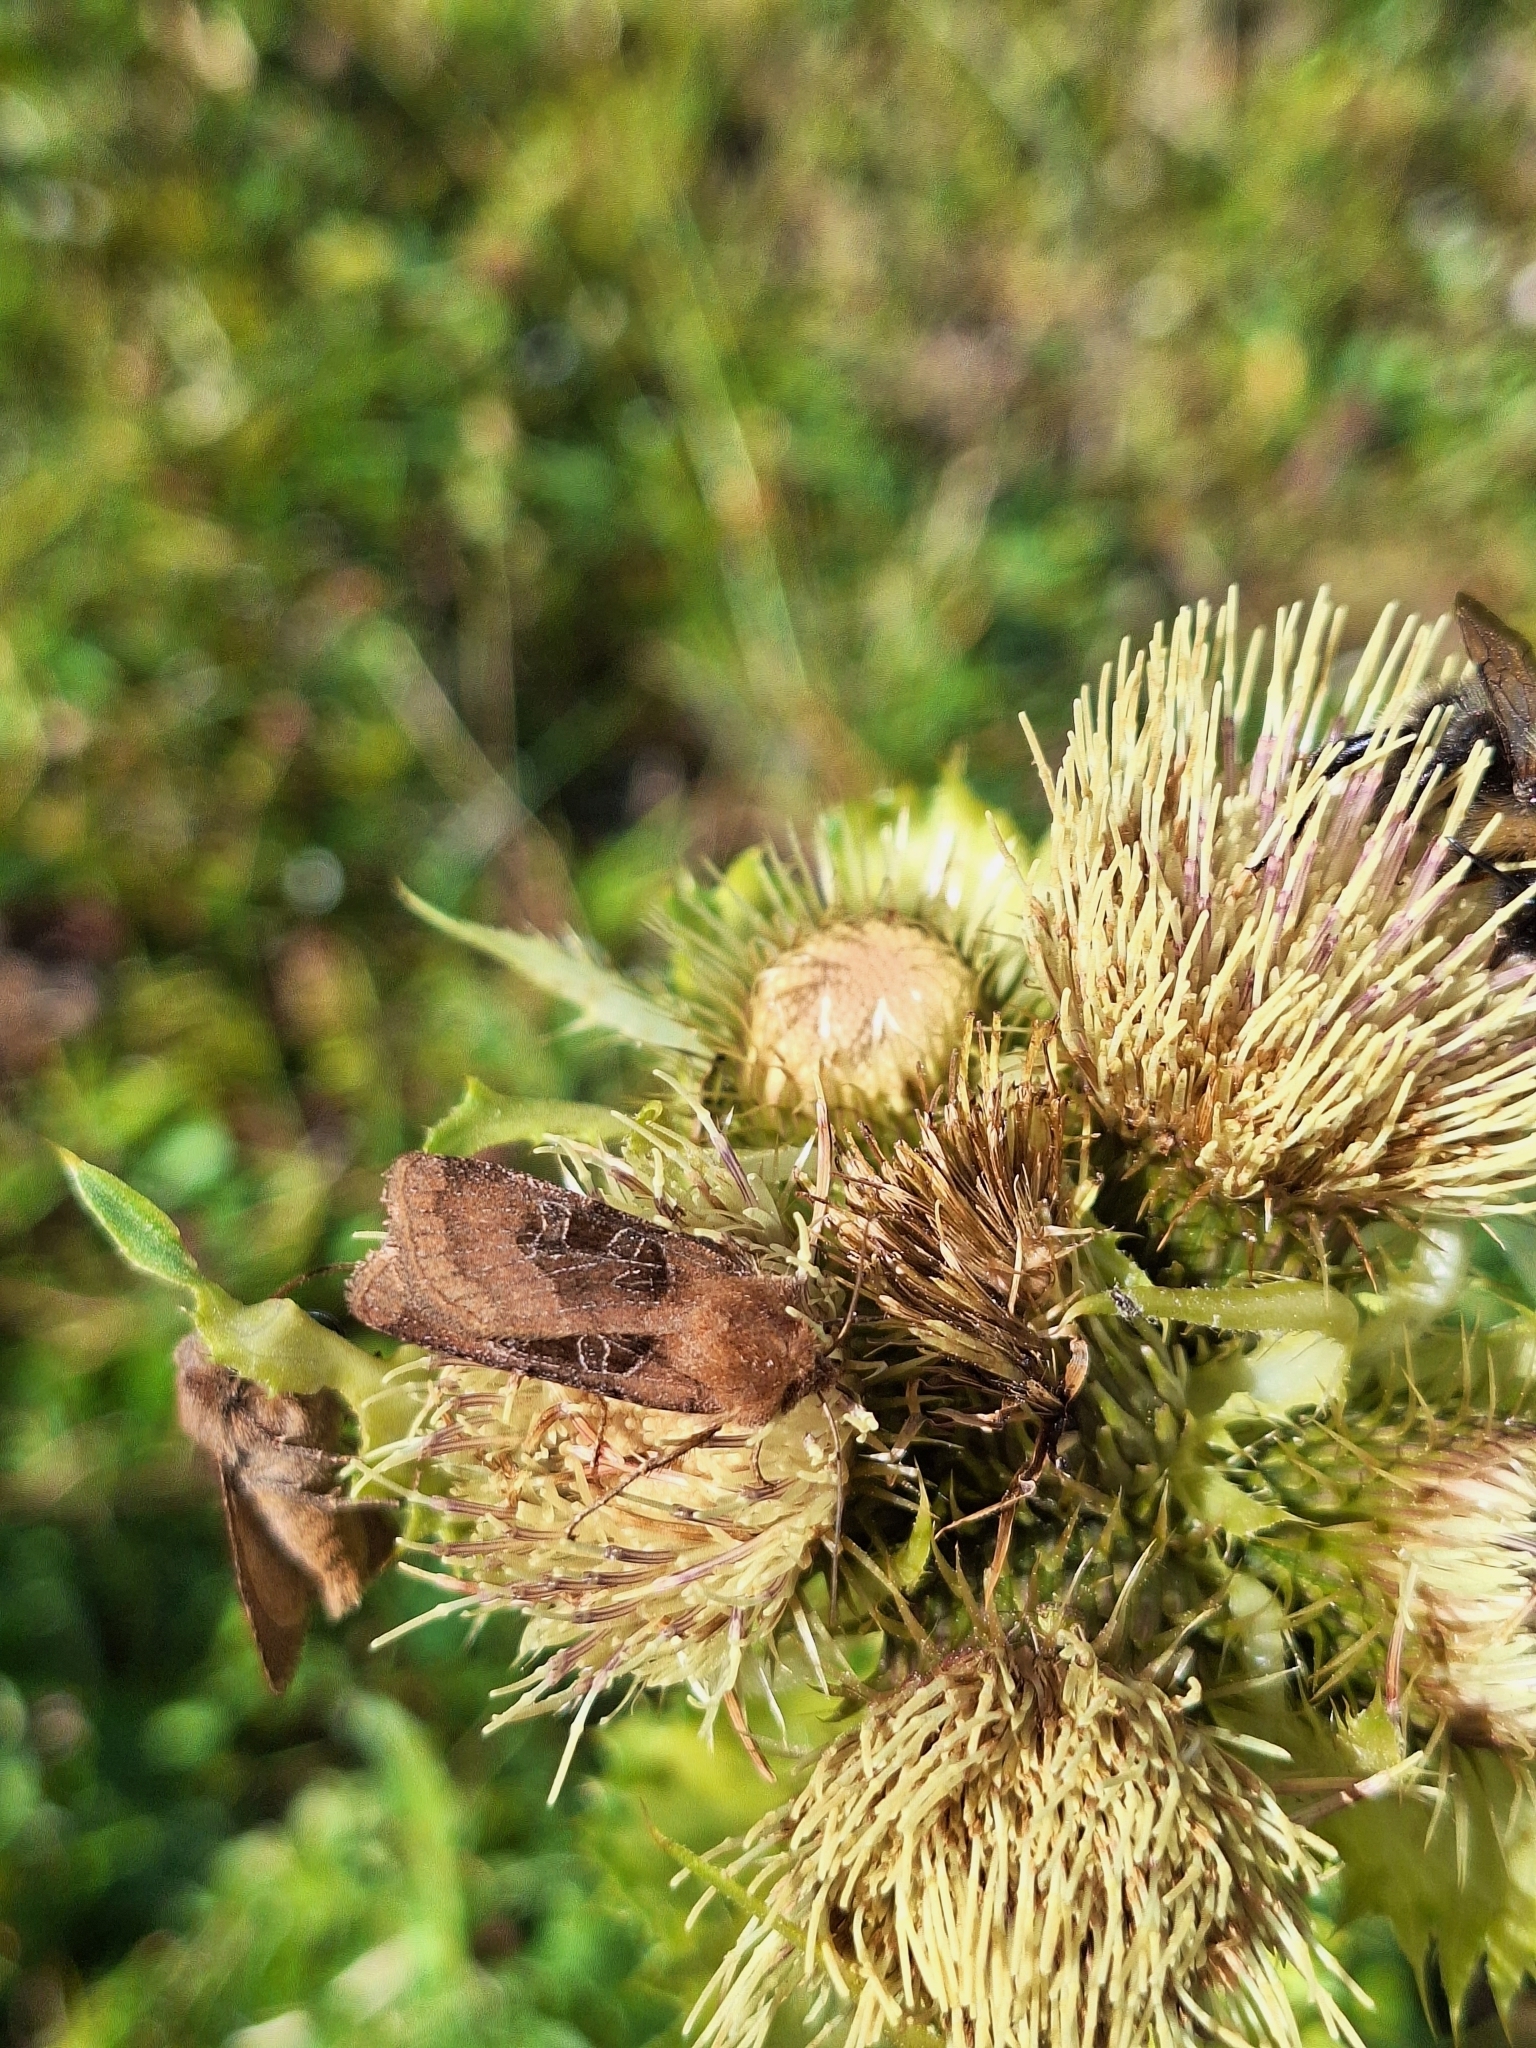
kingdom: Animalia
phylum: Arthropoda
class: Insecta
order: Lepidoptera
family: Noctuidae
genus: Chersotis
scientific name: Chersotis cuprea
